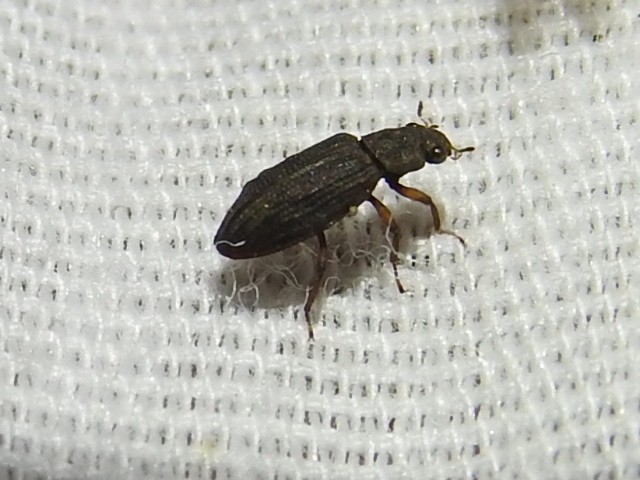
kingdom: Animalia
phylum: Arthropoda
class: Insecta
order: Coleoptera
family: Hydrochidae
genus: Hydrochus
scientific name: Hydrochus
